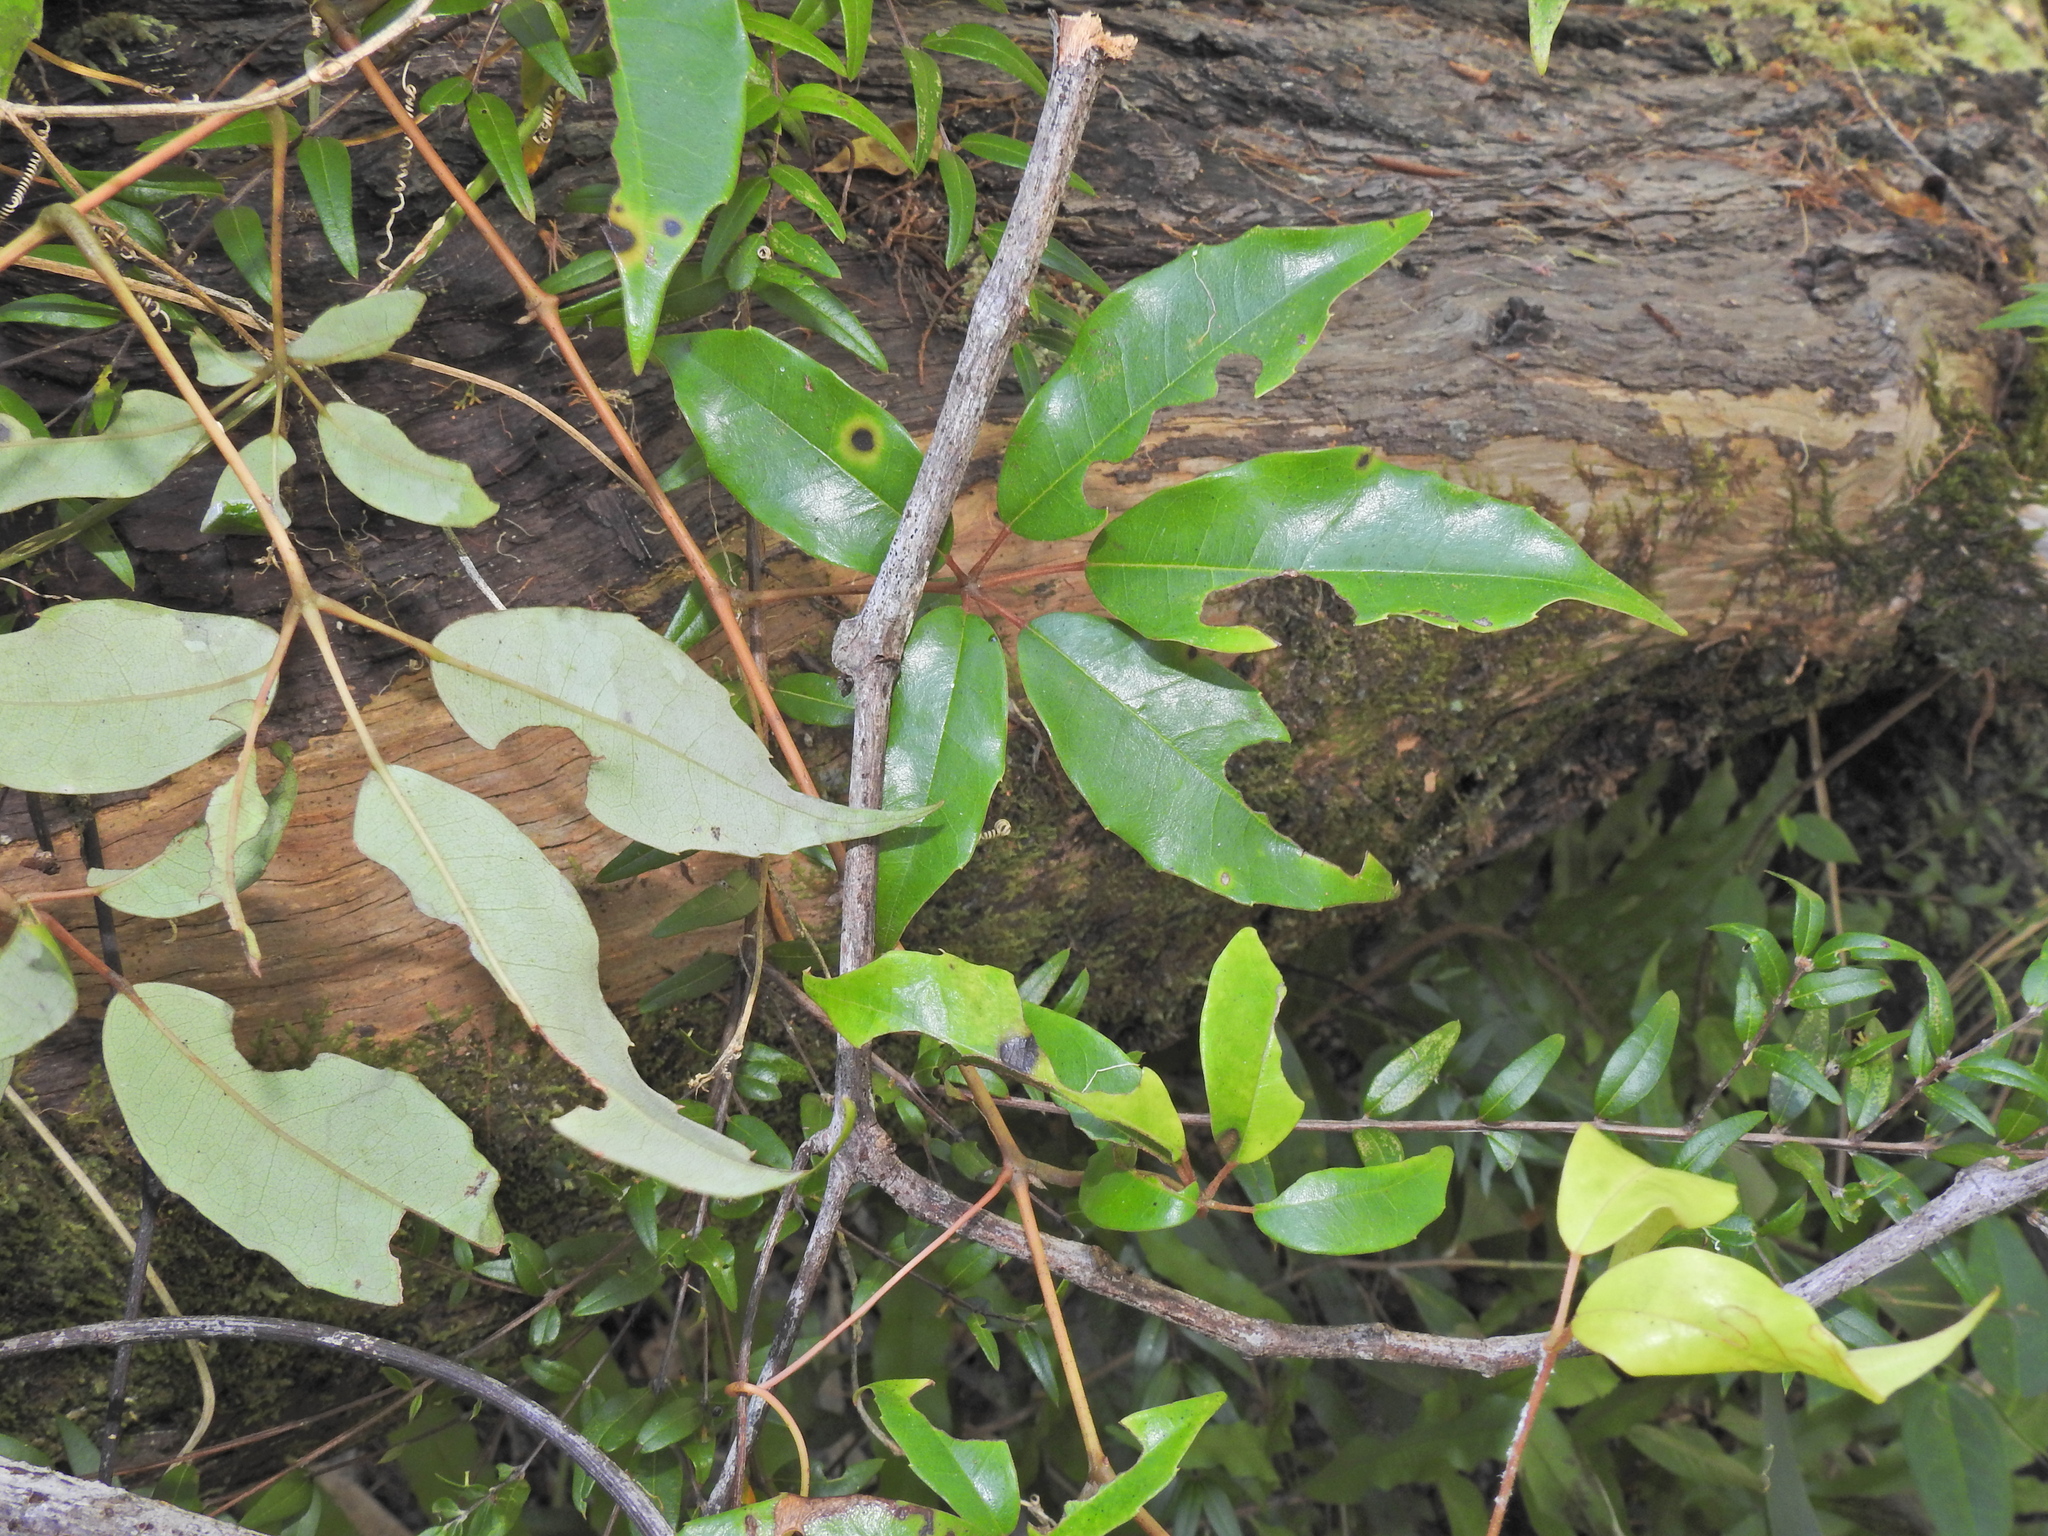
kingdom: Plantae
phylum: Tracheophyta
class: Magnoliopsida
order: Vitales
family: Vitaceae
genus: Nothocissus
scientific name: Nothocissus hypoglauca
